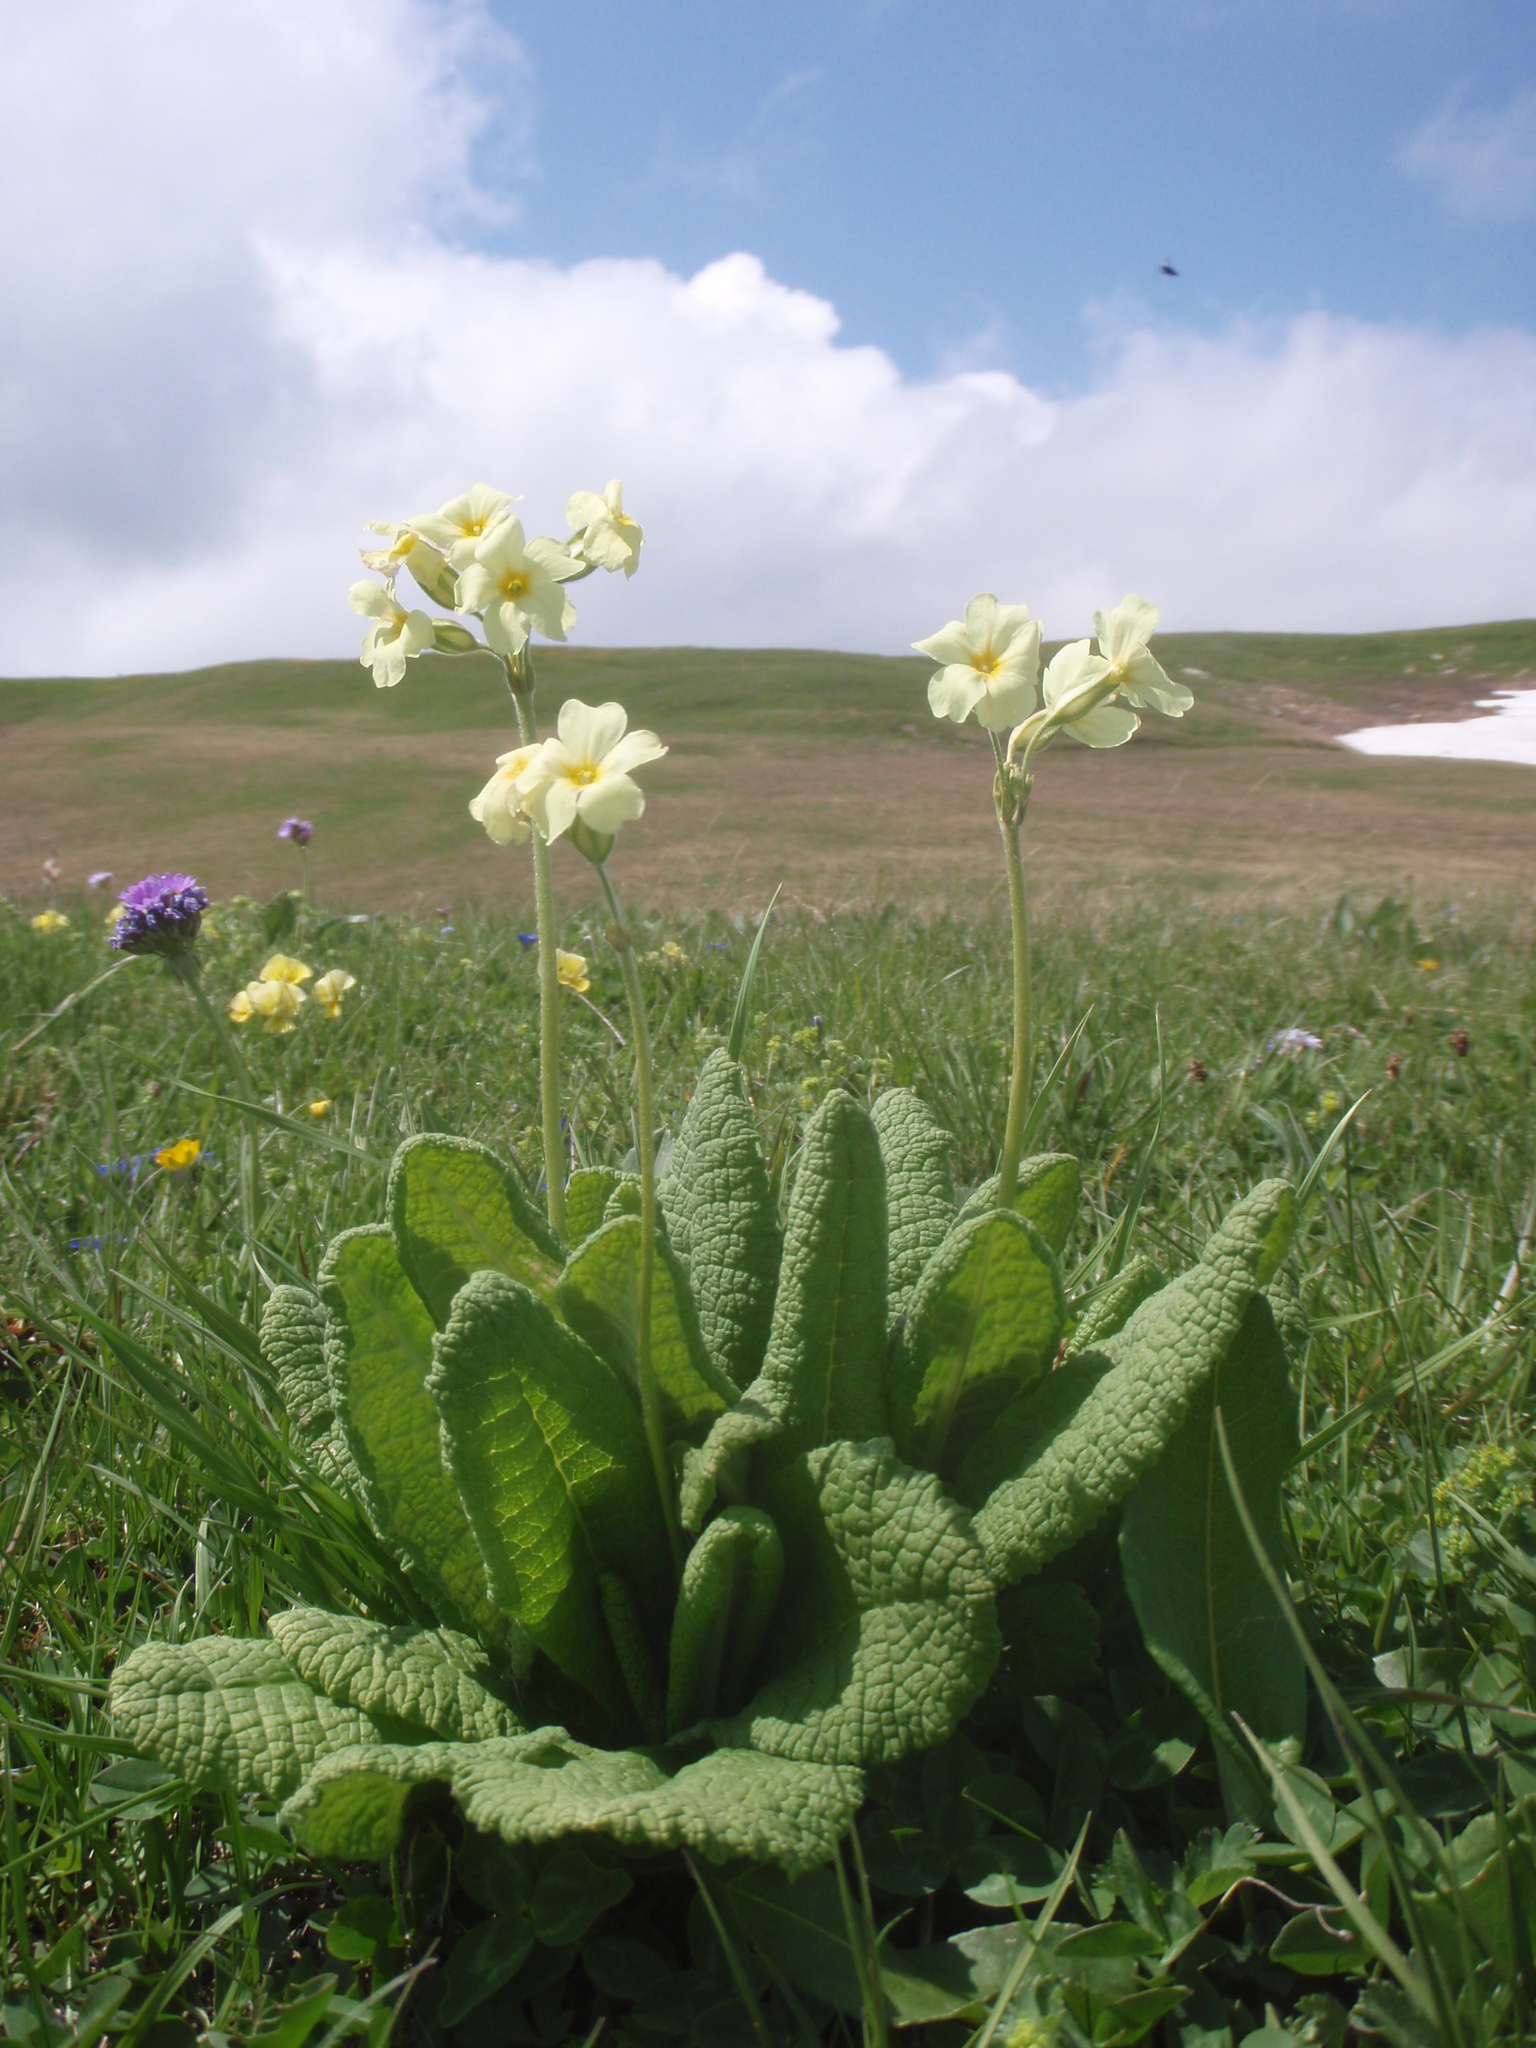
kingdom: Plantae
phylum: Tracheophyta
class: Magnoliopsida
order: Ericales
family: Primulaceae
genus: Primula
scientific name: Primula ruprechtii
